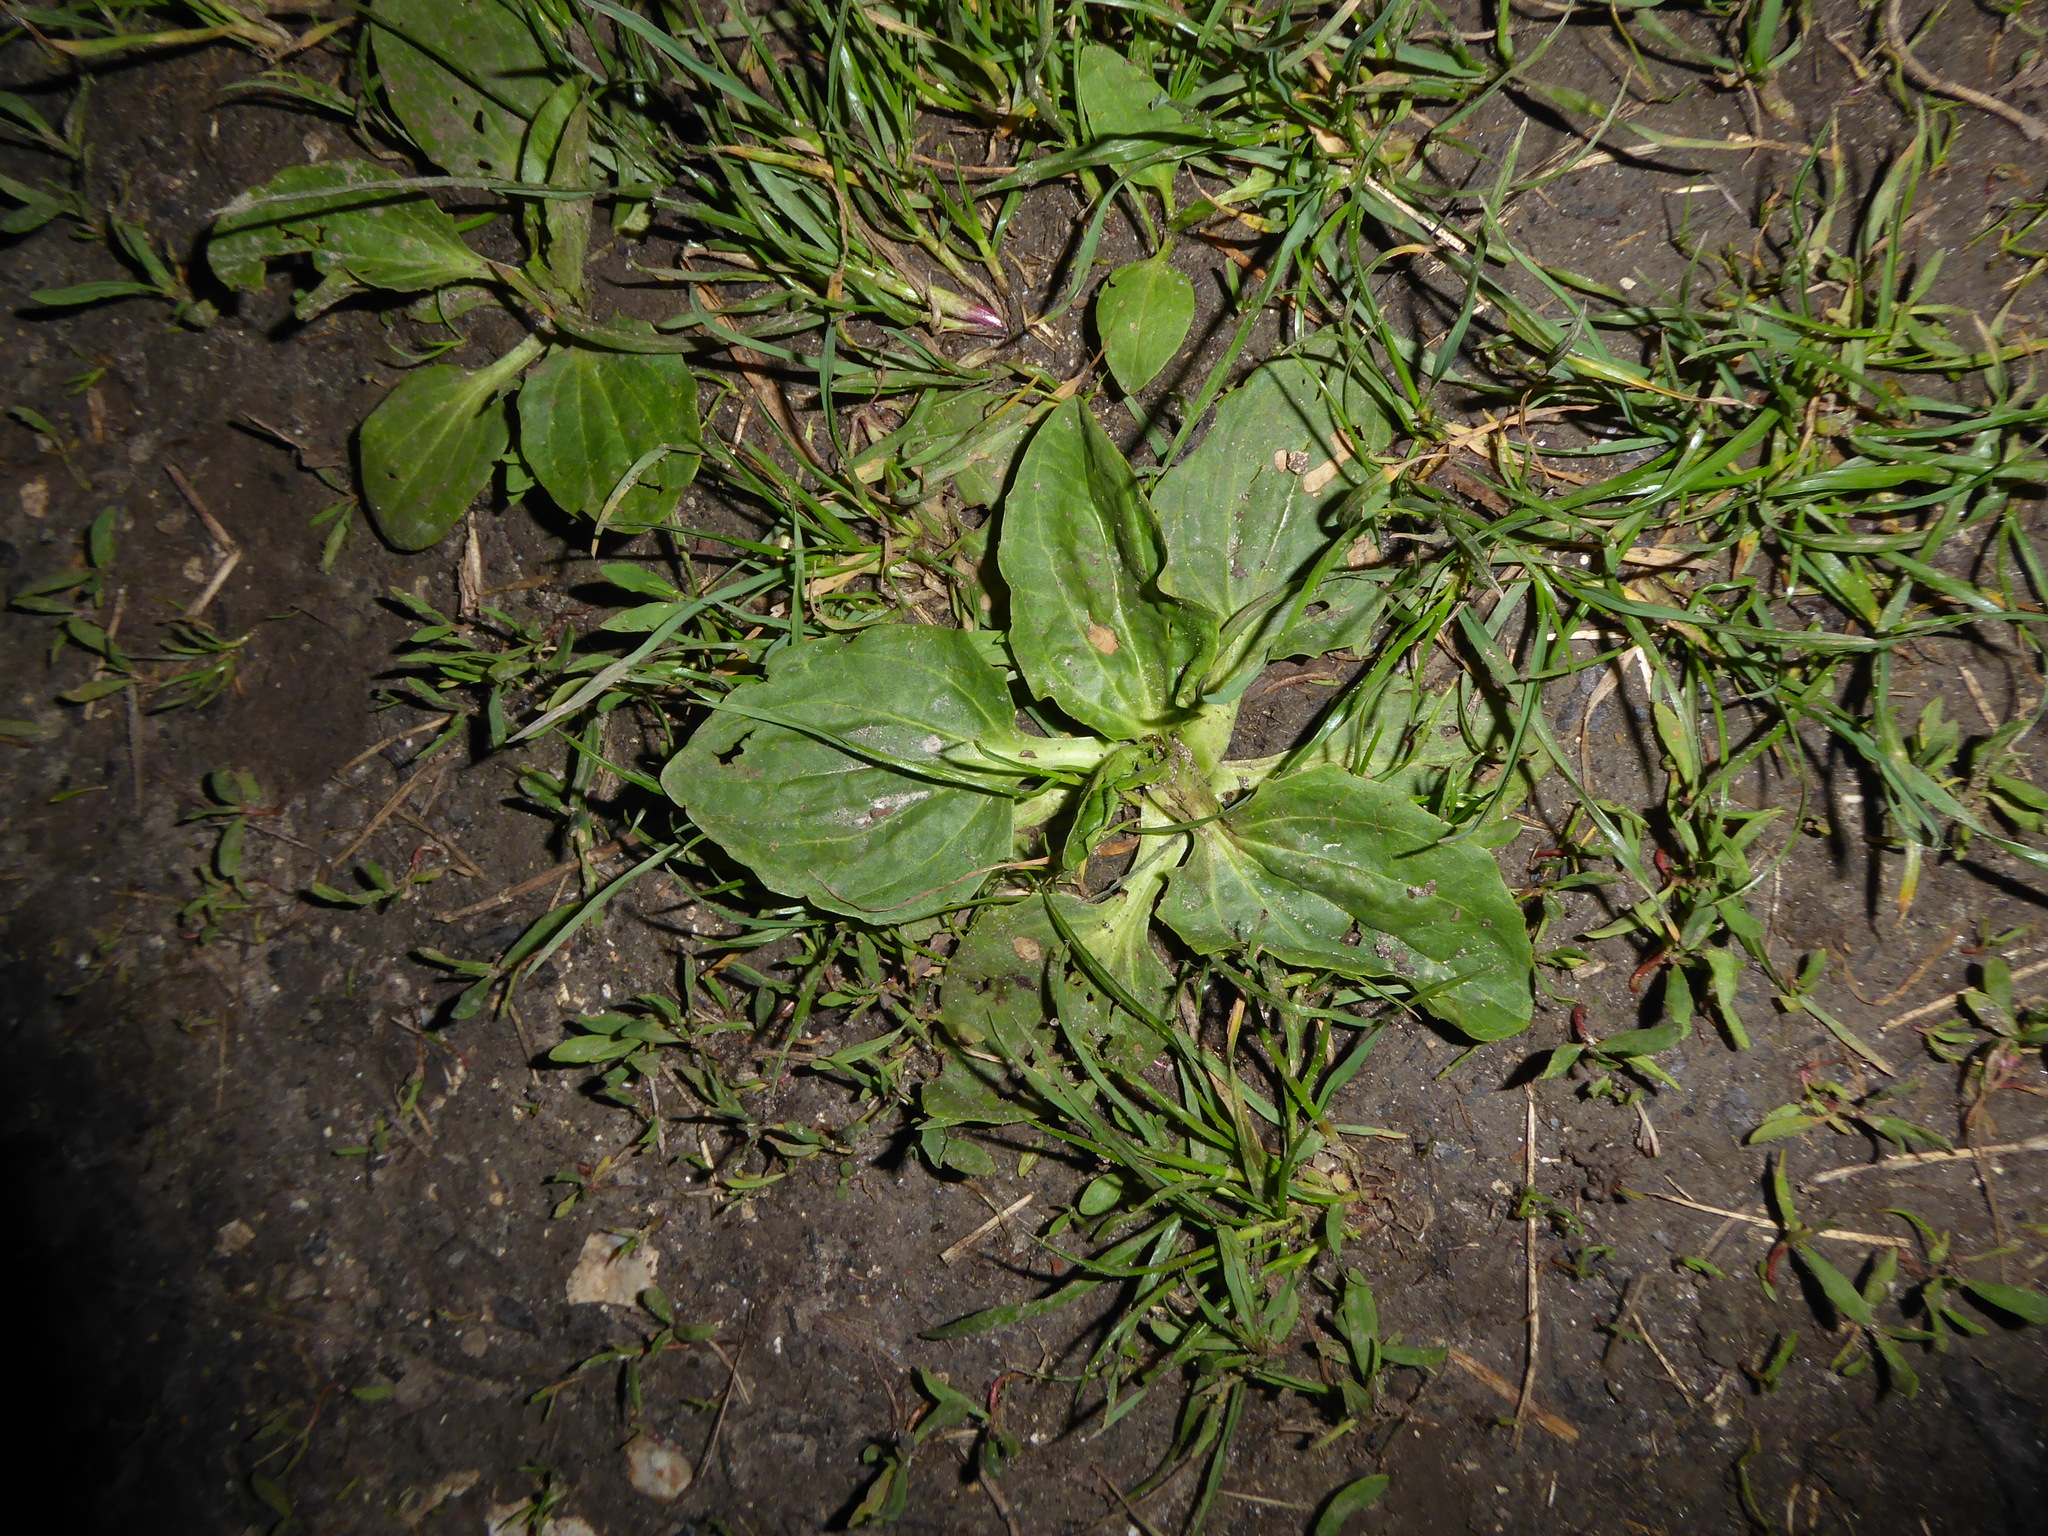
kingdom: Plantae
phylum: Tracheophyta
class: Magnoliopsida
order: Lamiales
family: Plantaginaceae
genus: Plantago
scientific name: Plantago major
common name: Common plantain
